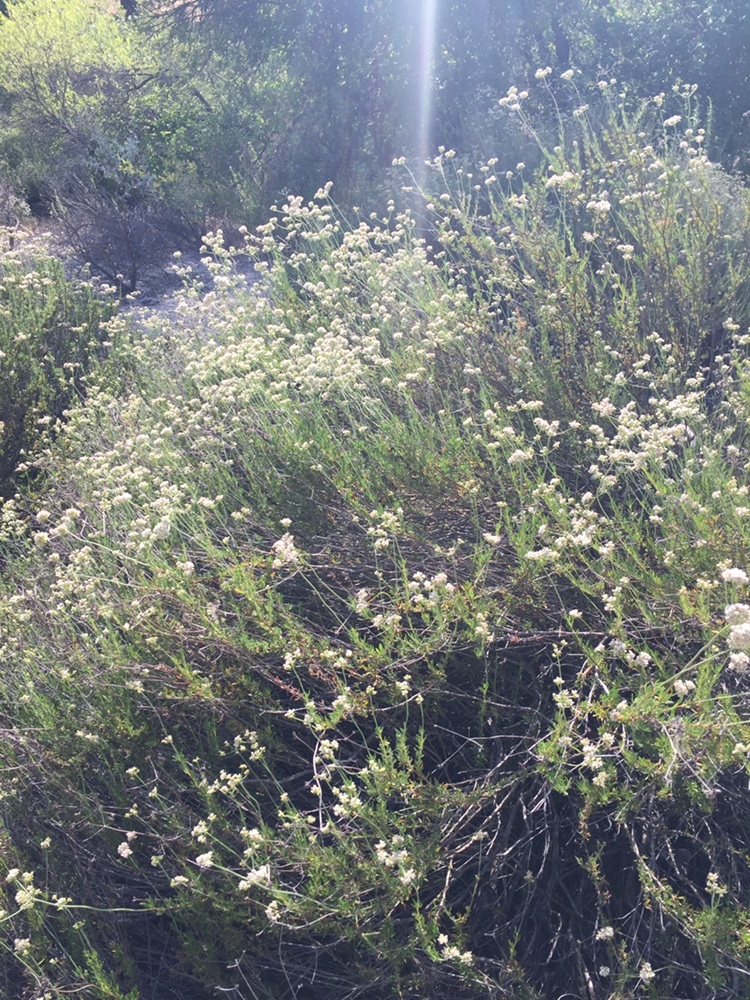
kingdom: Plantae
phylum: Tracheophyta
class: Magnoliopsida
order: Caryophyllales
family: Polygonaceae
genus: Eriogonum
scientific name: Eriogonum fasciculatum
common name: California wild buckwheat
